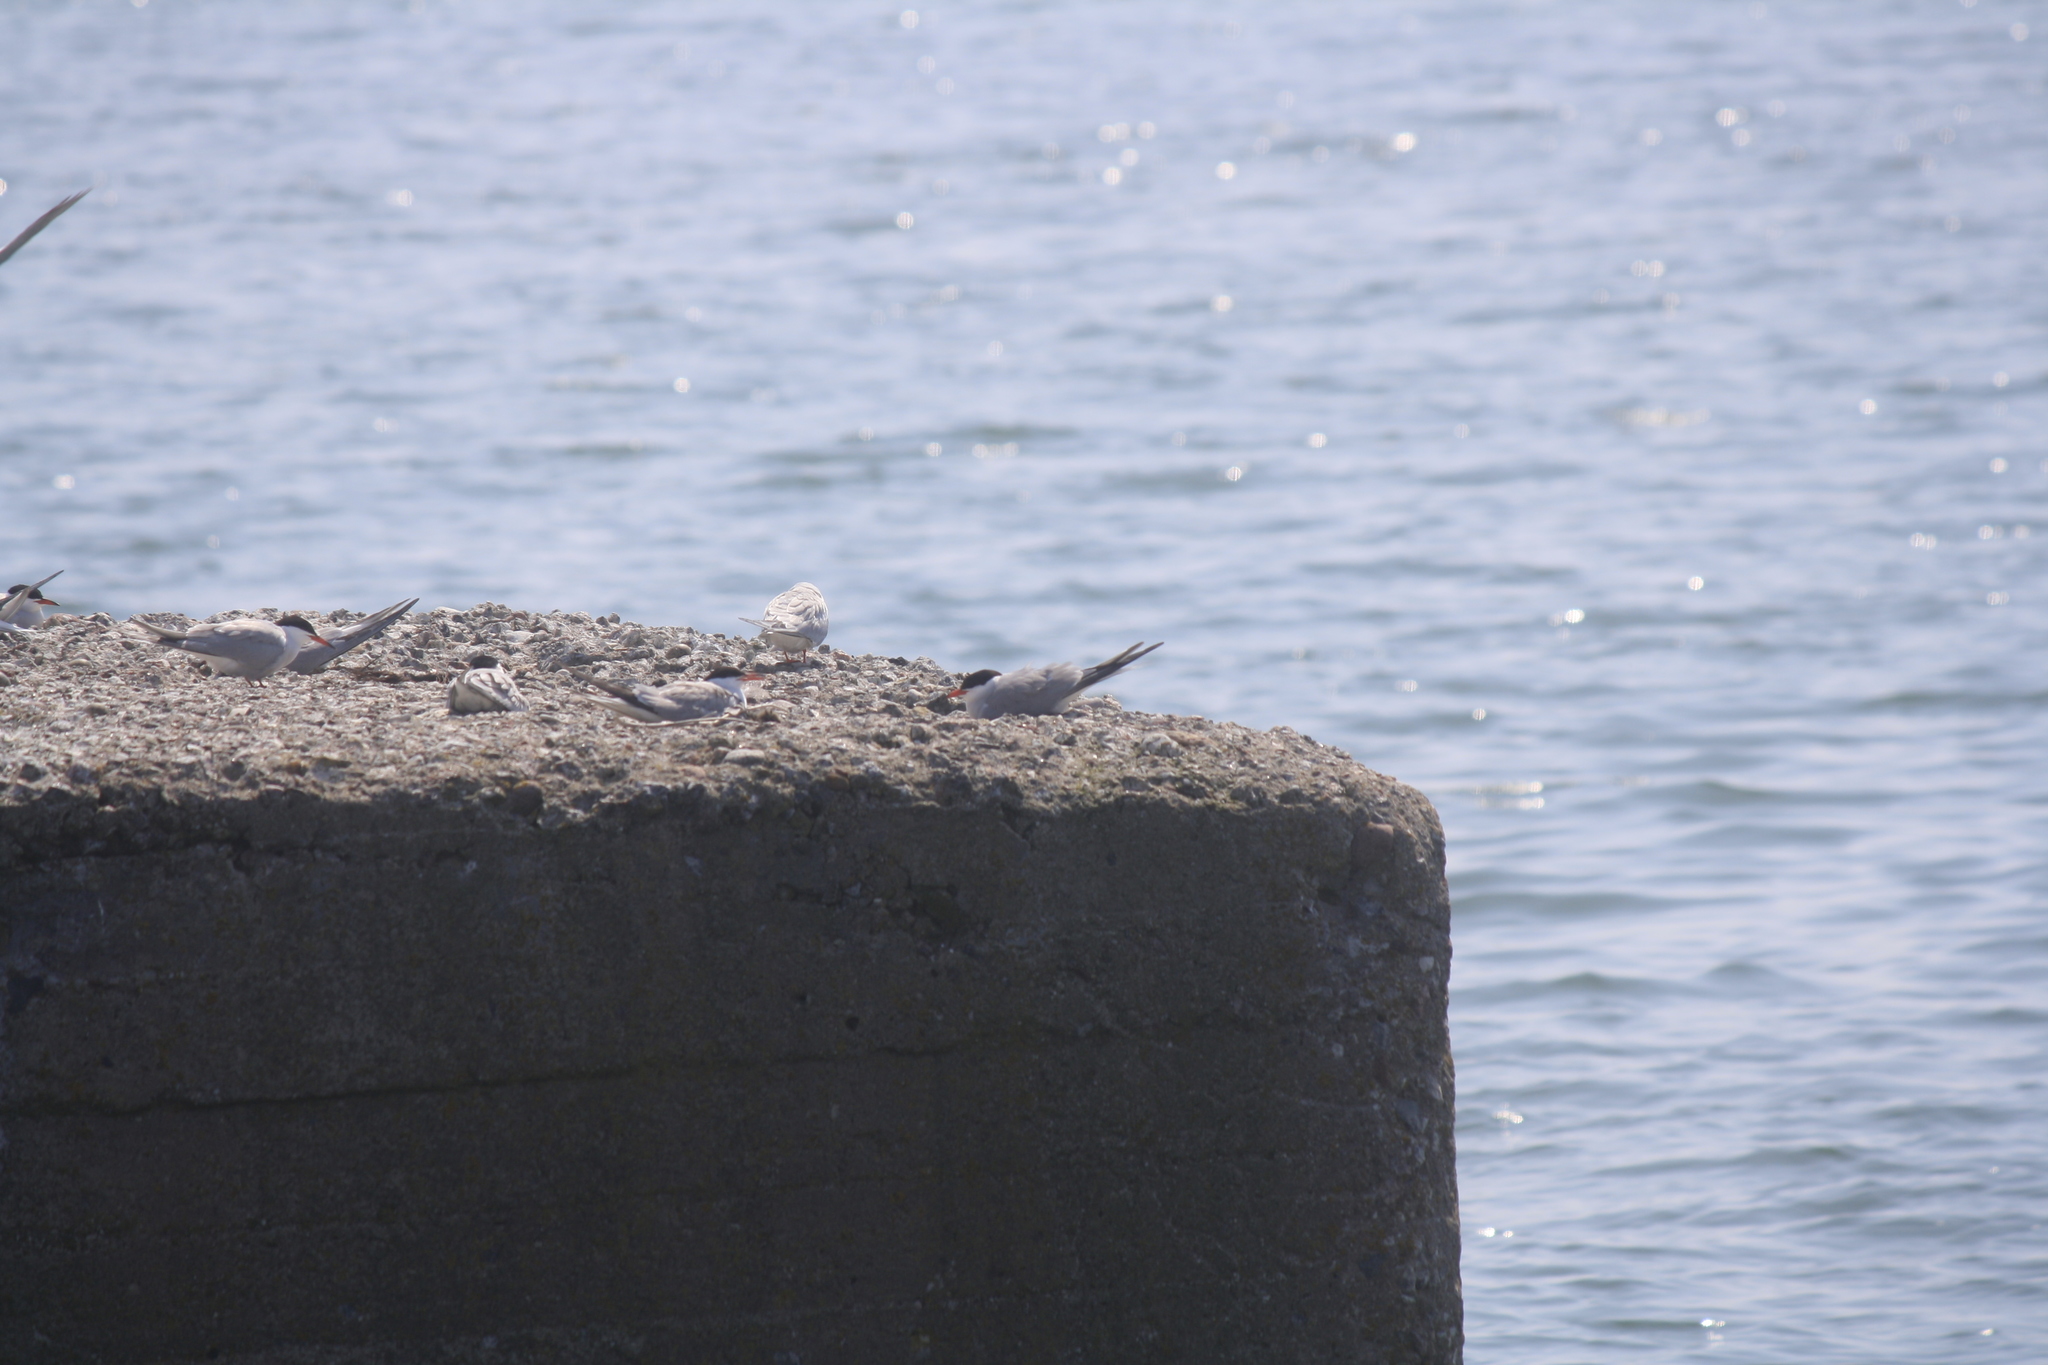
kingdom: Animalia
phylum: Chordata
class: Aves
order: Charadriiformes
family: Laridae
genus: Sterna
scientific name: Sterna hirundo
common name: Common tern
